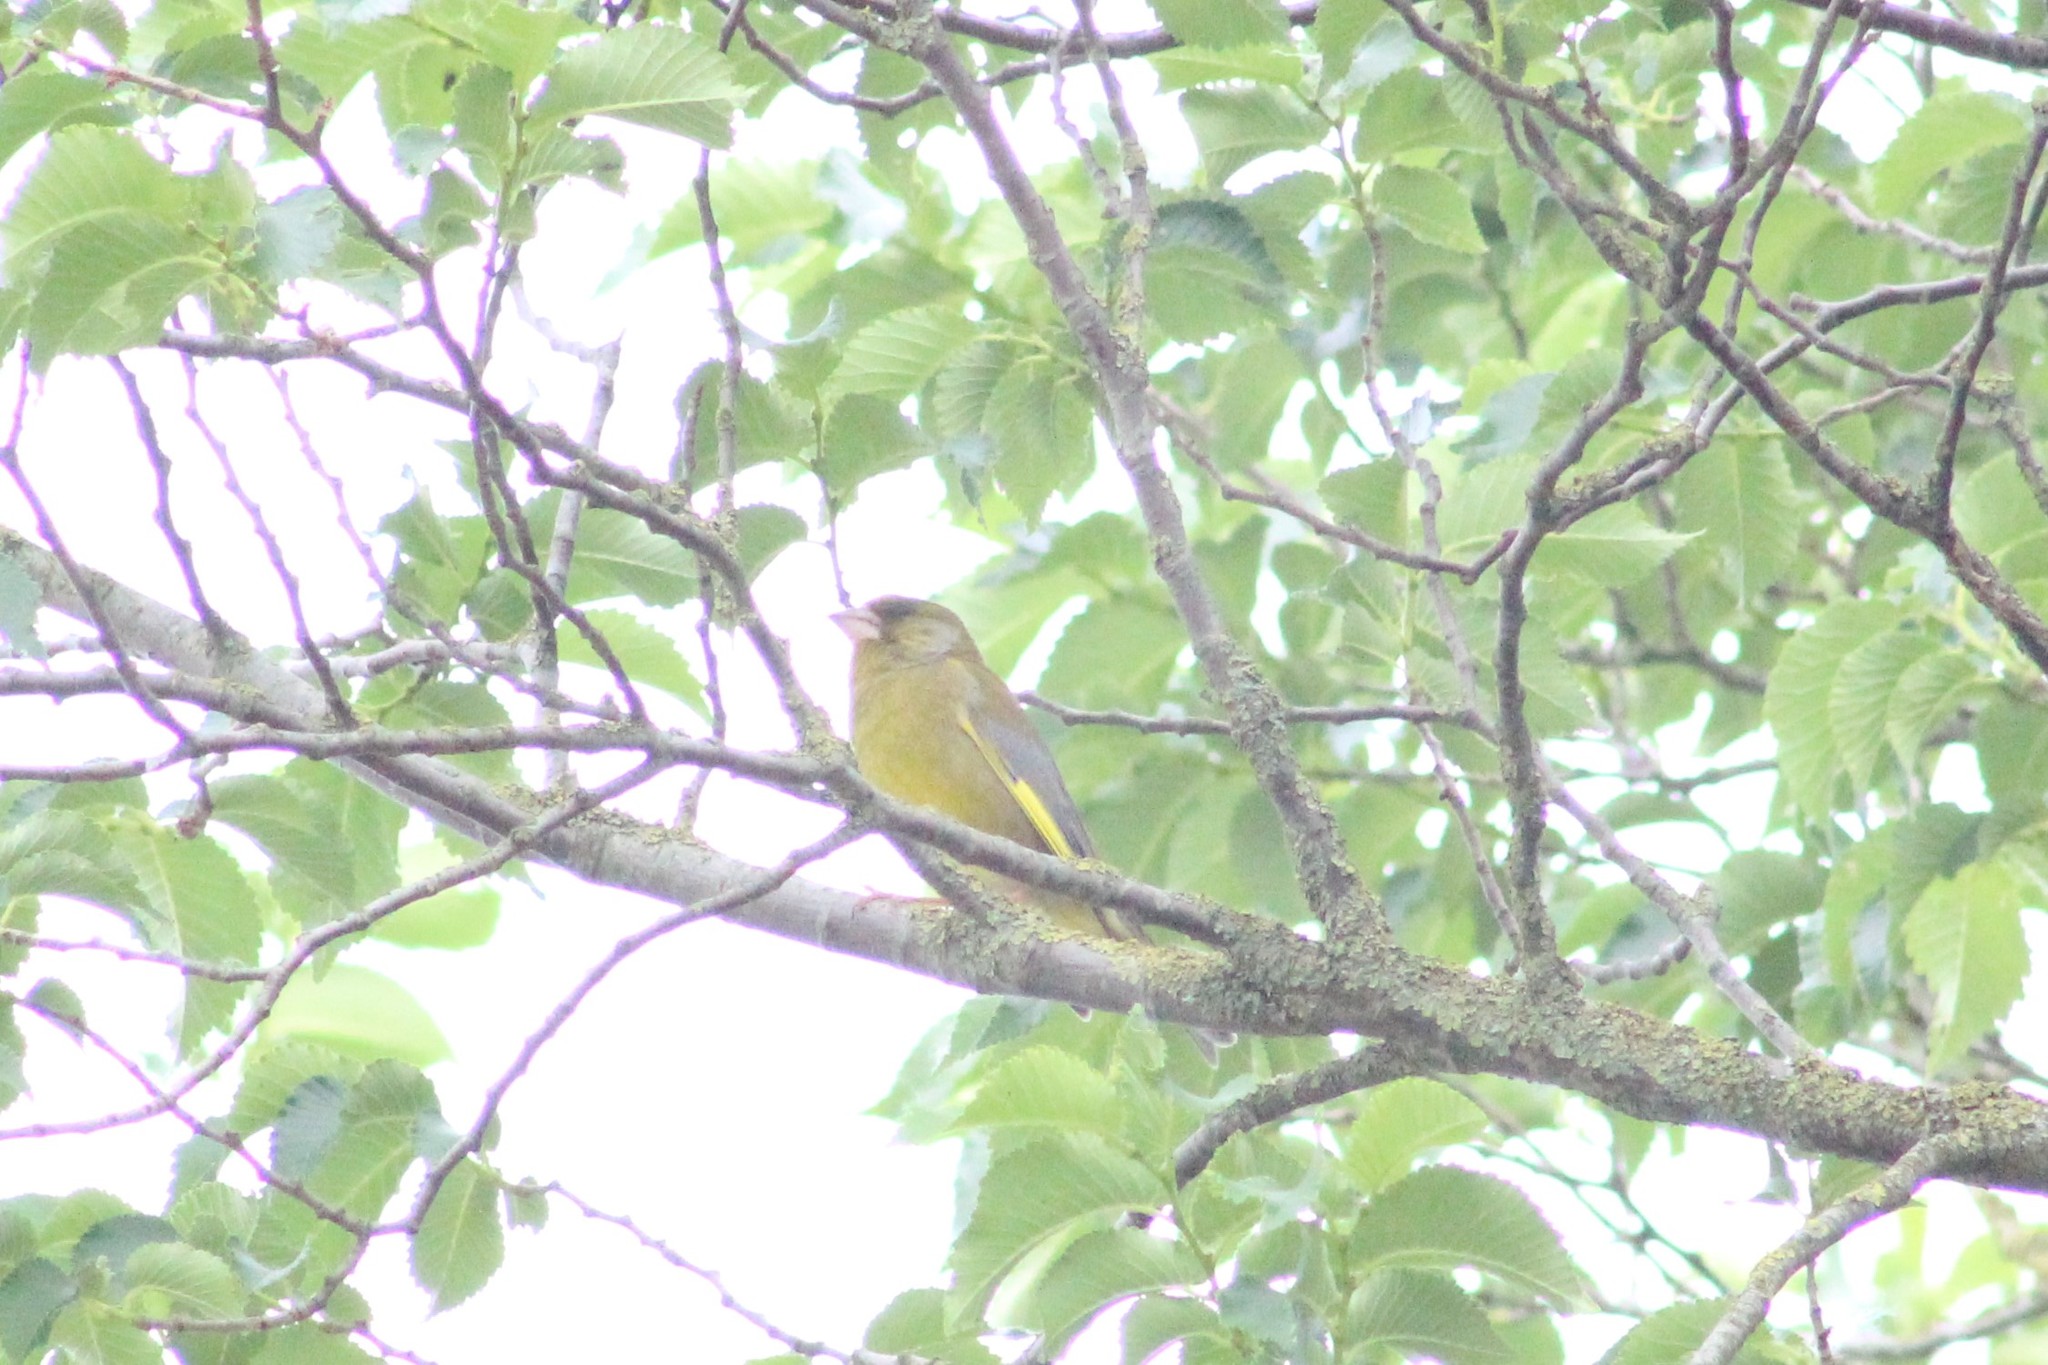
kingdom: Plantae
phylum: Tracheophyta
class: Liliopsida
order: Poales
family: Poaceae
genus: Chloris
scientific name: Chloris chloris
